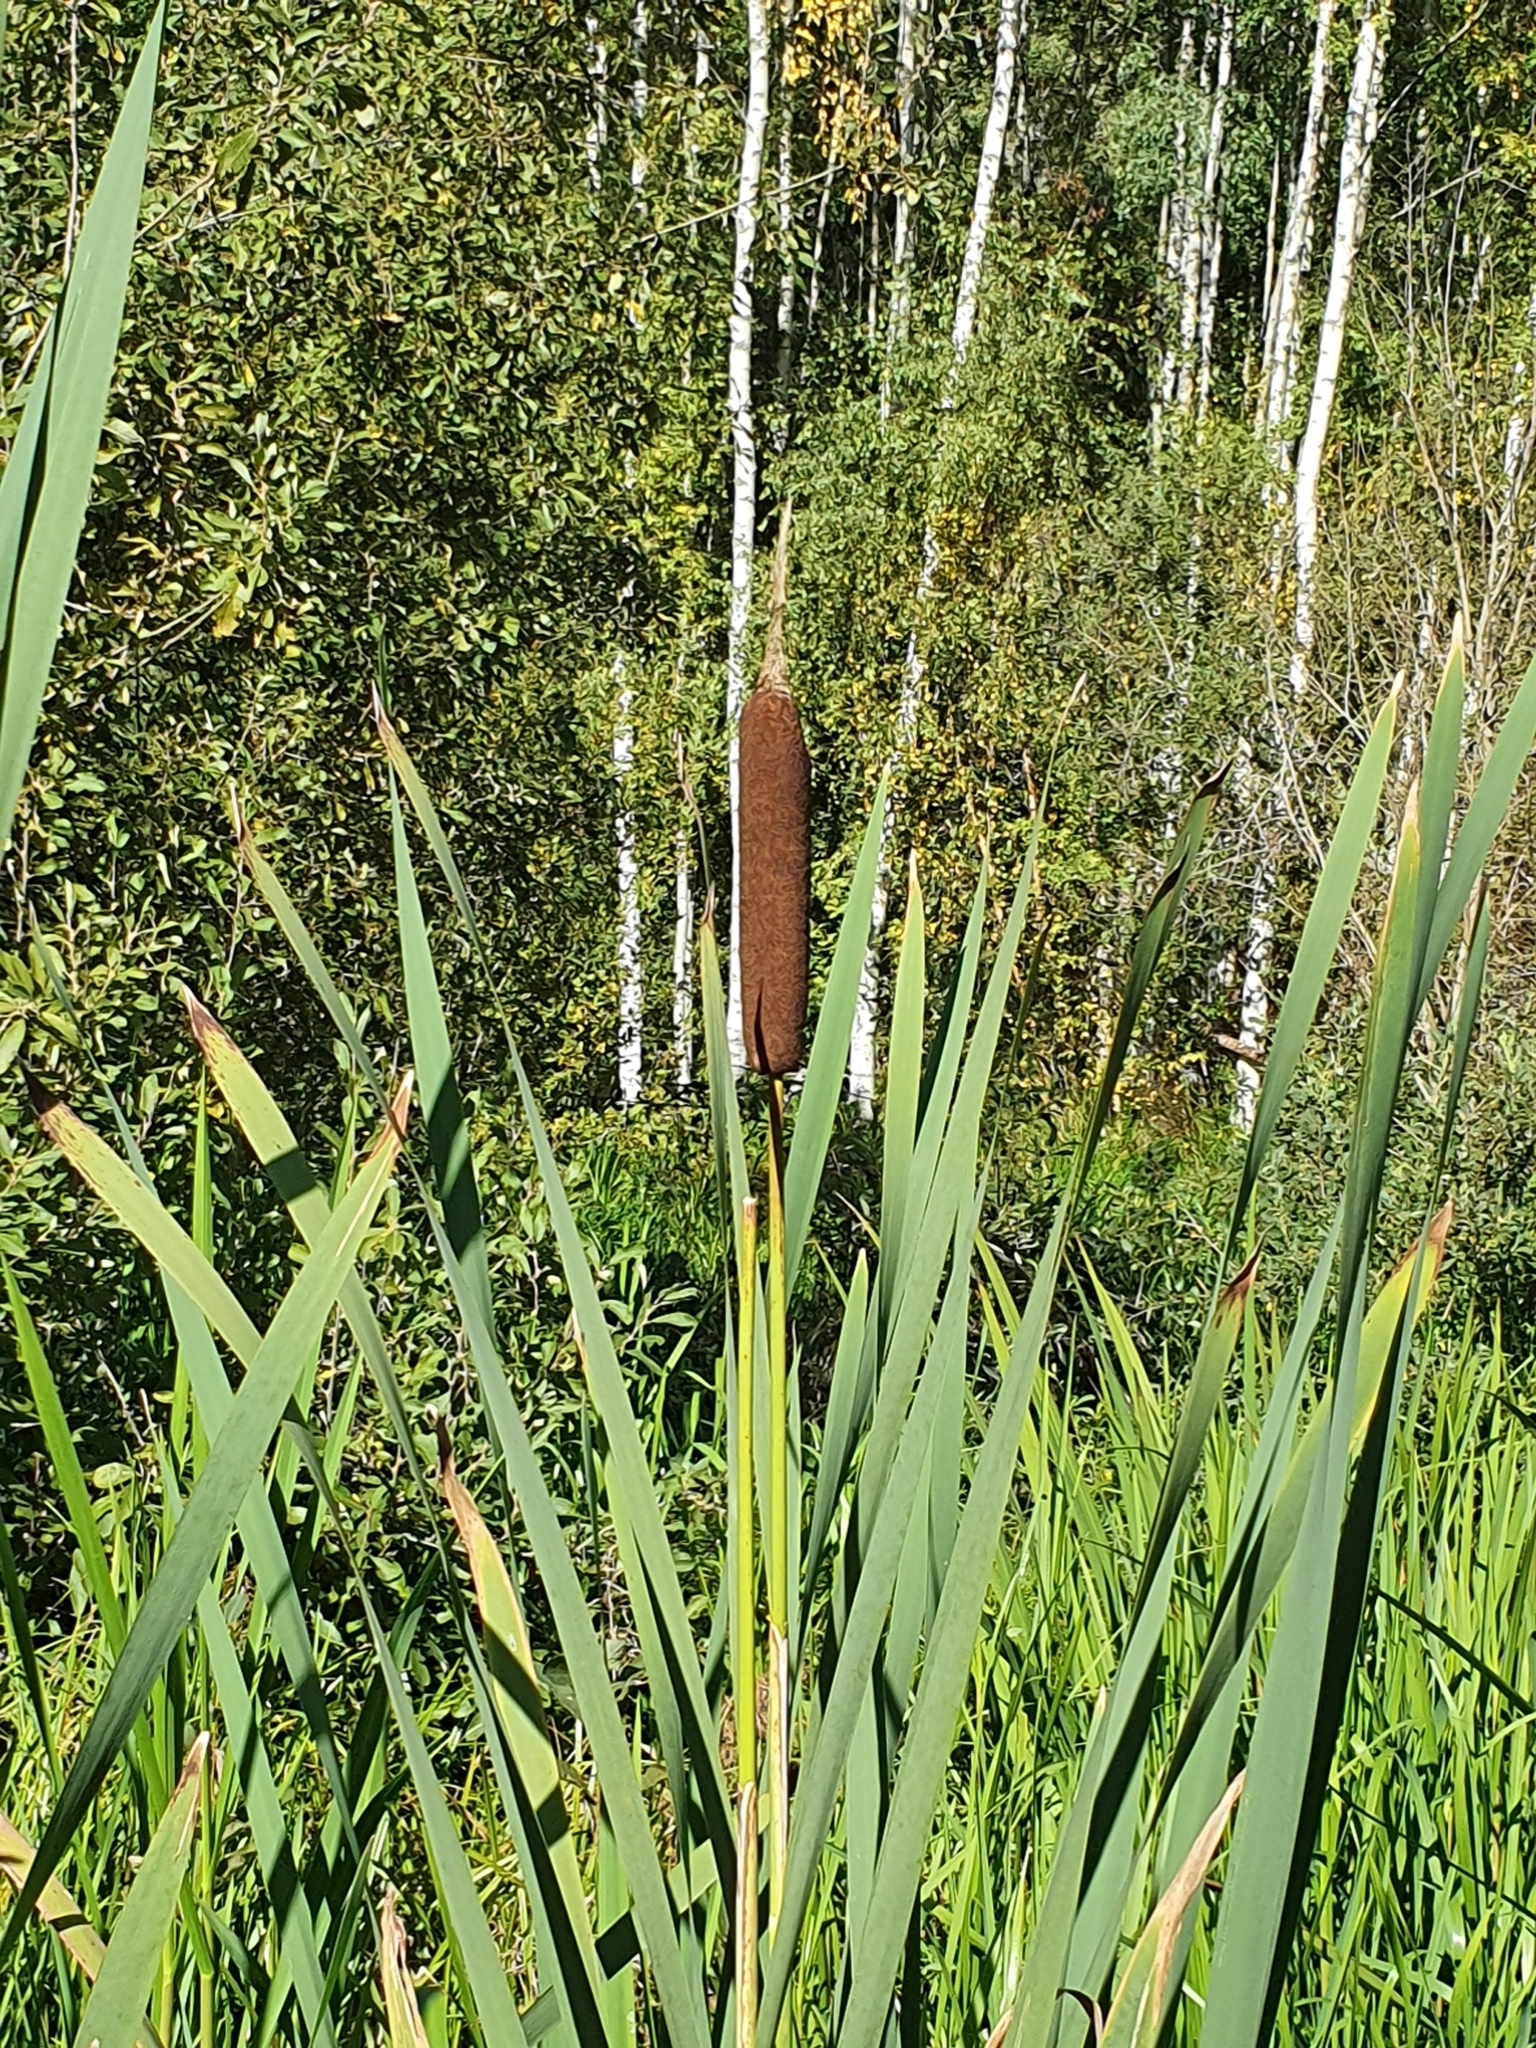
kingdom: Plantae
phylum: Tracheophyta
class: Liliopsida
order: Poales
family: Typhaceae
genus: Typha
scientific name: Typha latifolia
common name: Broadleaf cattail
